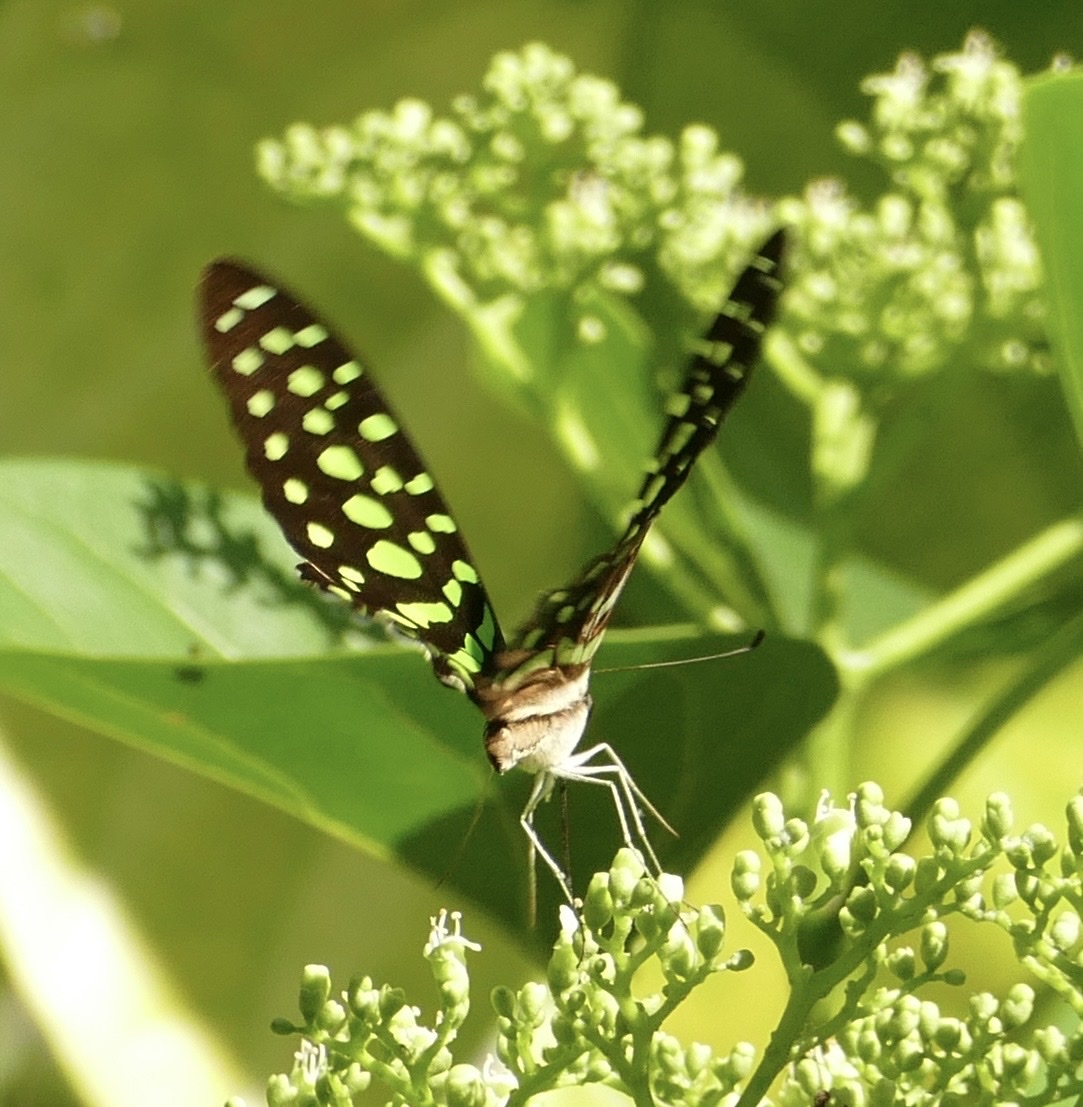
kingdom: Animalia
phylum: Arthropoda
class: Insecta
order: Lepidoptera
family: Papilionidae
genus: Graphium
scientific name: Graphium agamemnon
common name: Tailed jay
